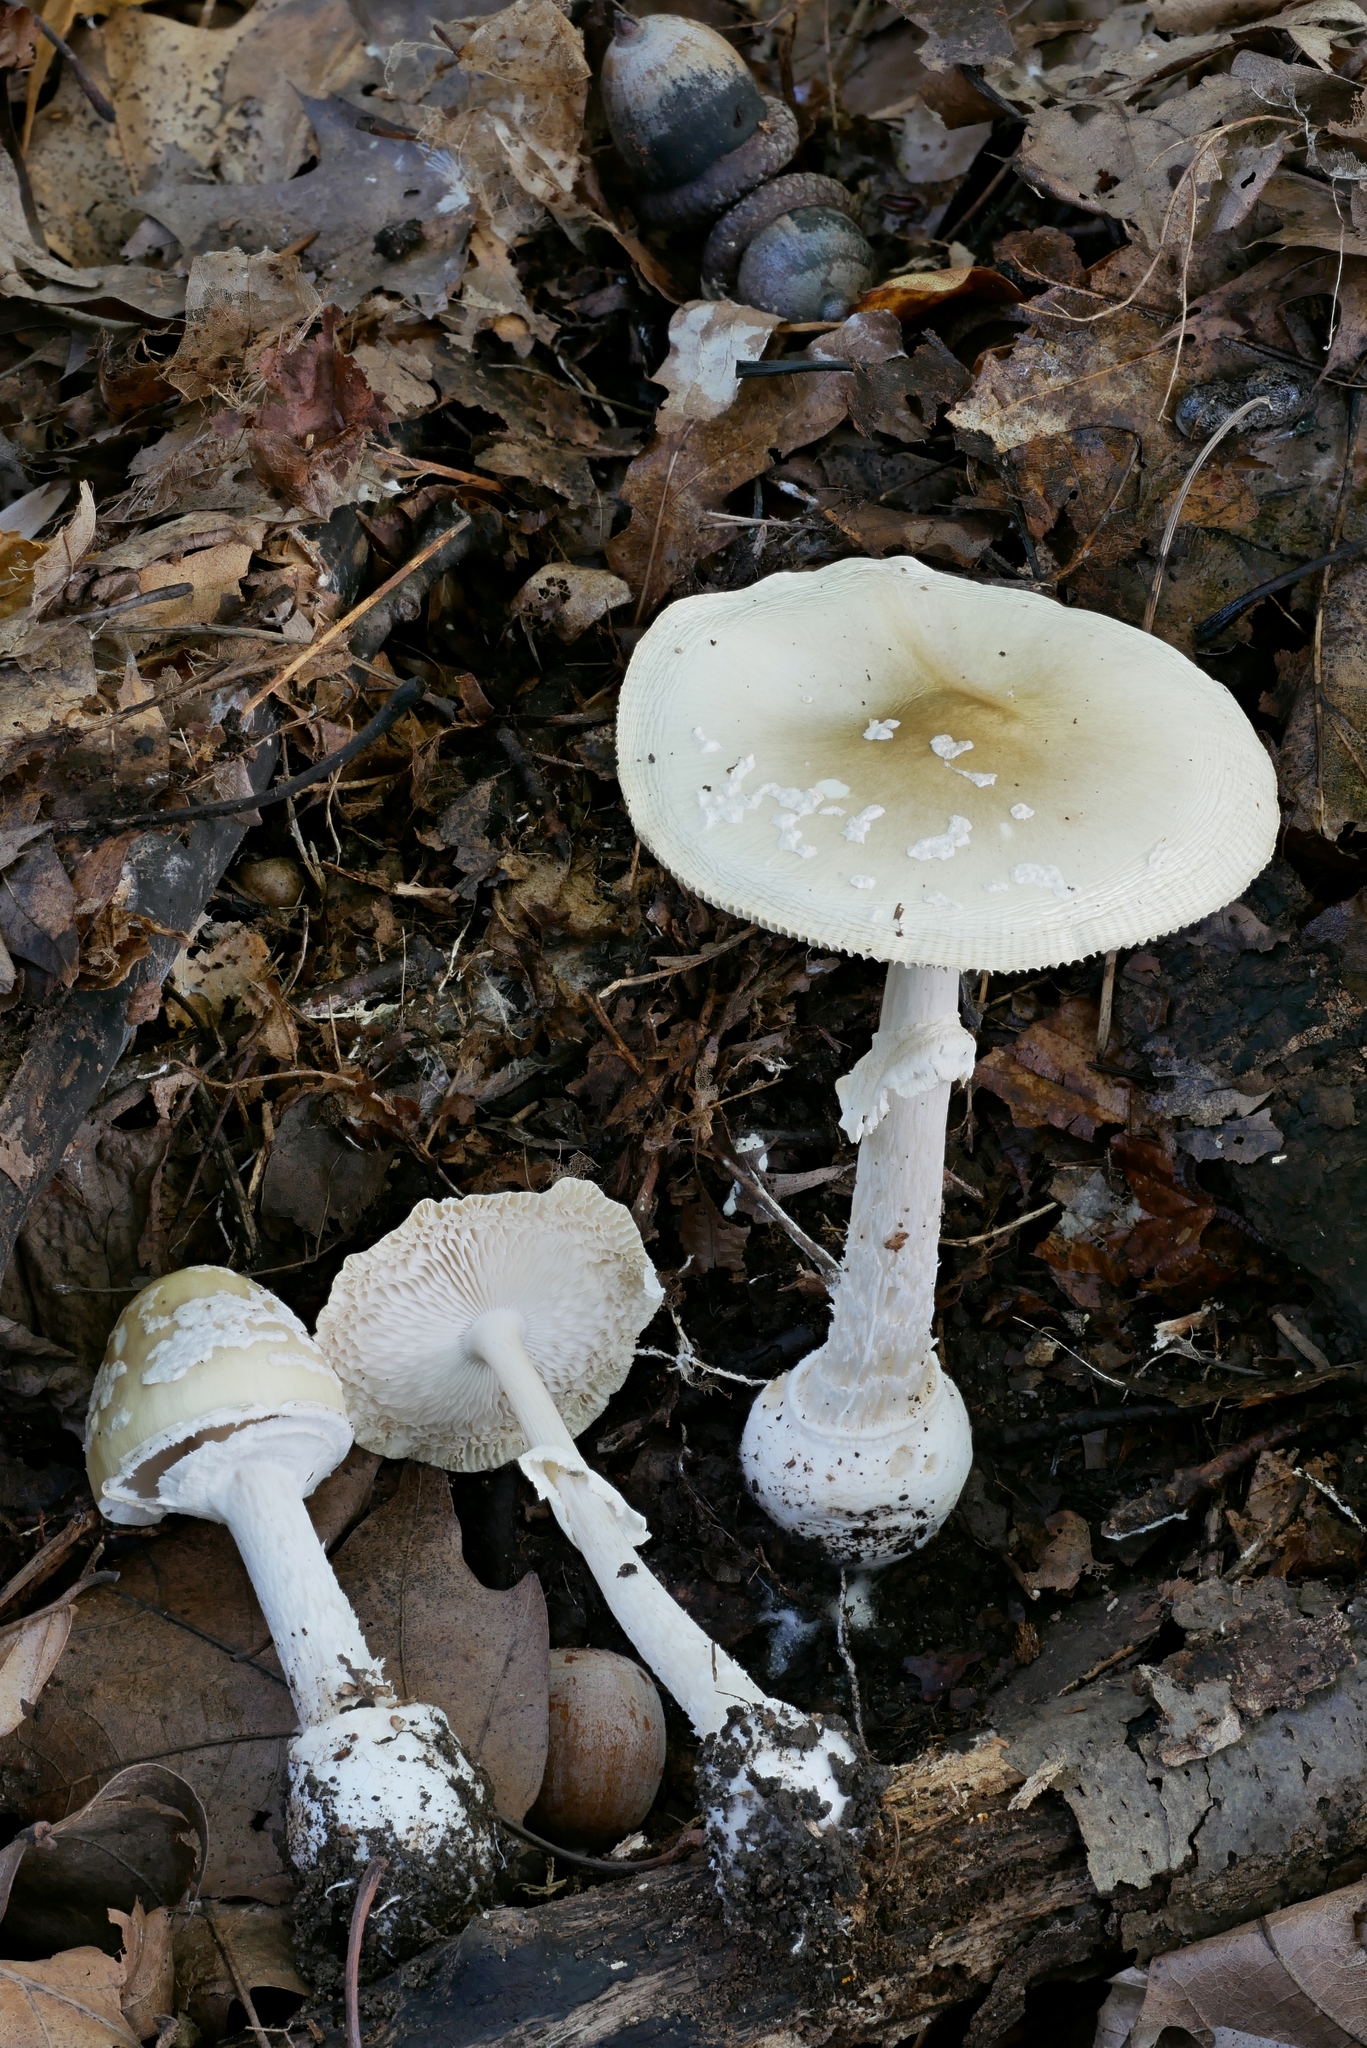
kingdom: Fungi
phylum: Basidiomycota
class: Agaricomycetes
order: Agaricales
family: Amanitaceae
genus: Amanita
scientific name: Amanita multisquamosa
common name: Small funnel-veil amanita
